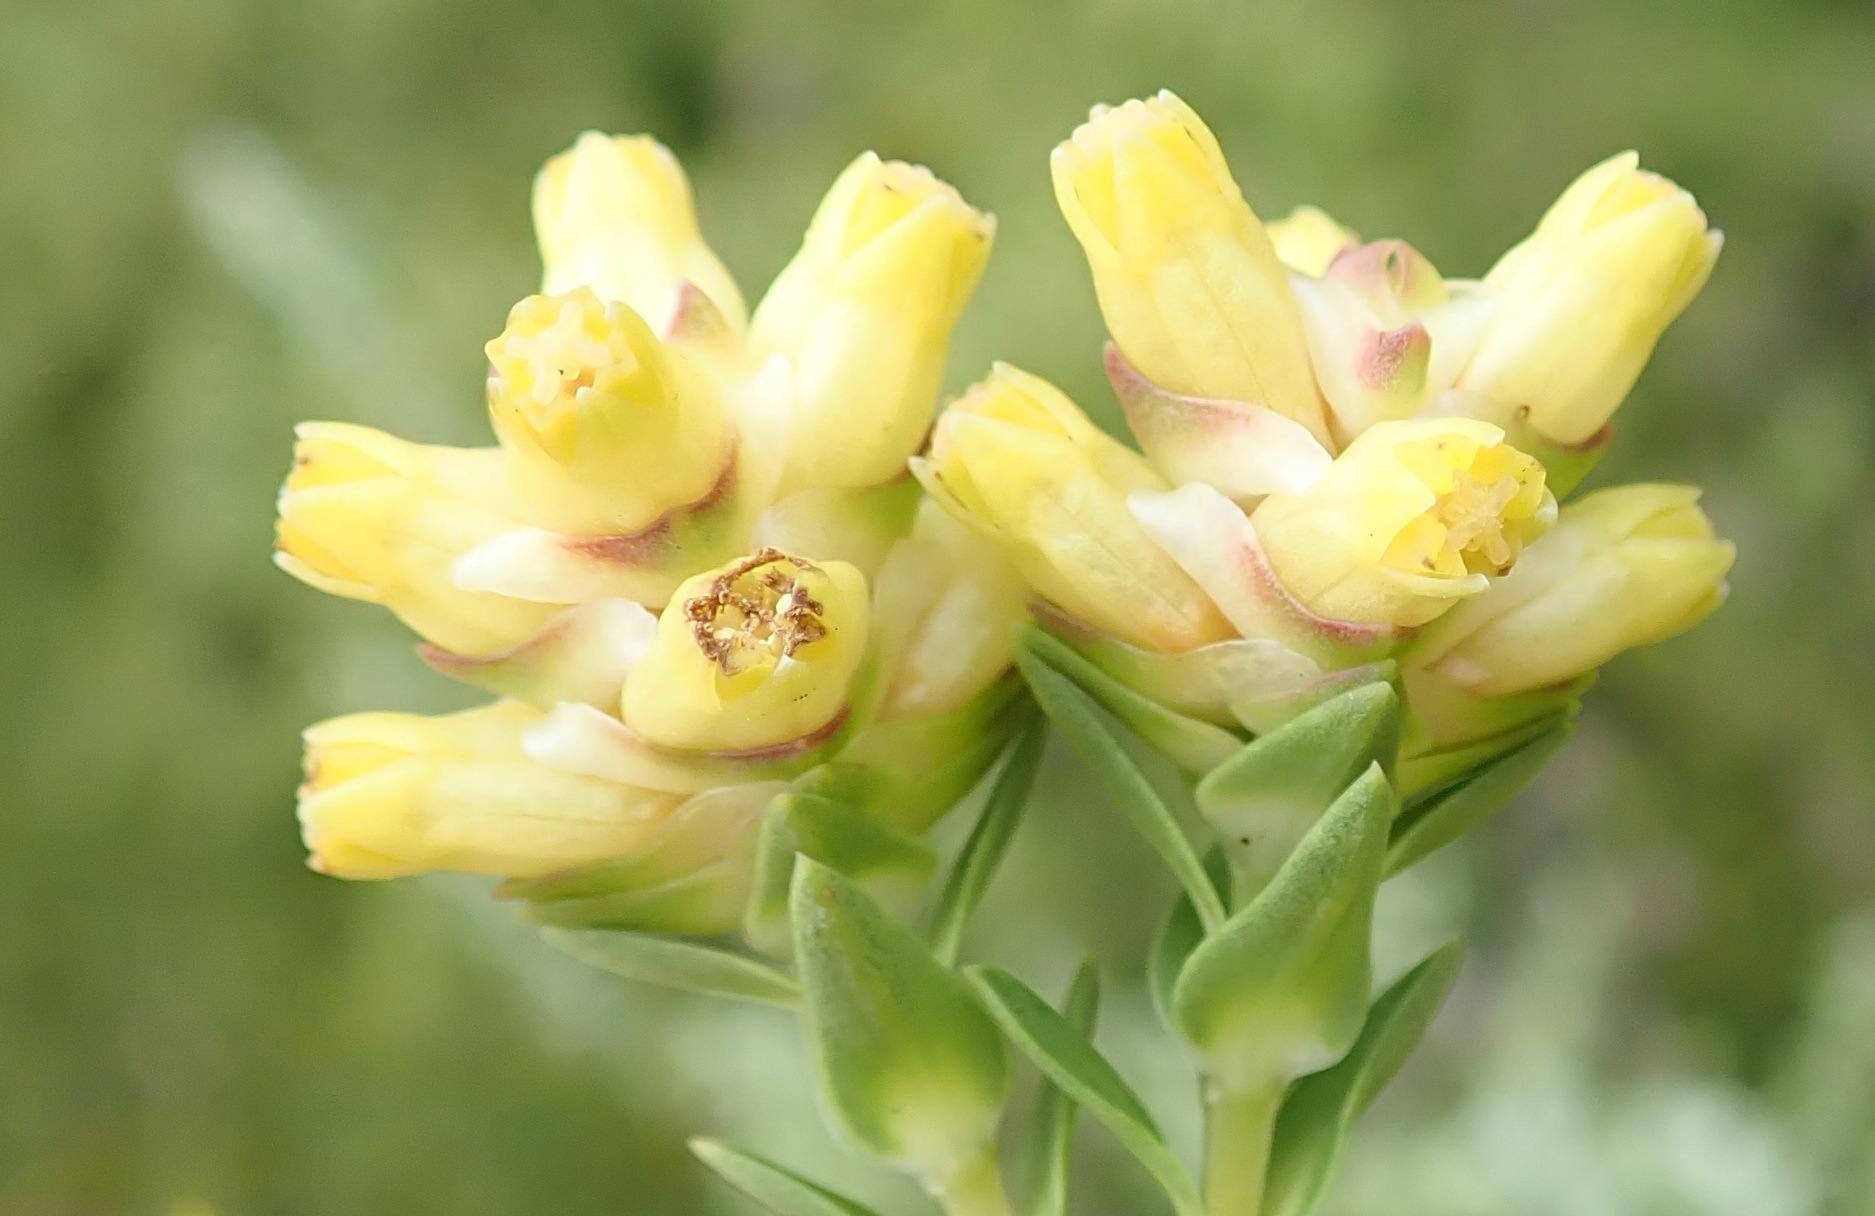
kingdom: Plantae
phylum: Tracheophyta
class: Magnoliopsida
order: Myrtales
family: Penaeaceae
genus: Penaea
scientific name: Penaea cneorum
